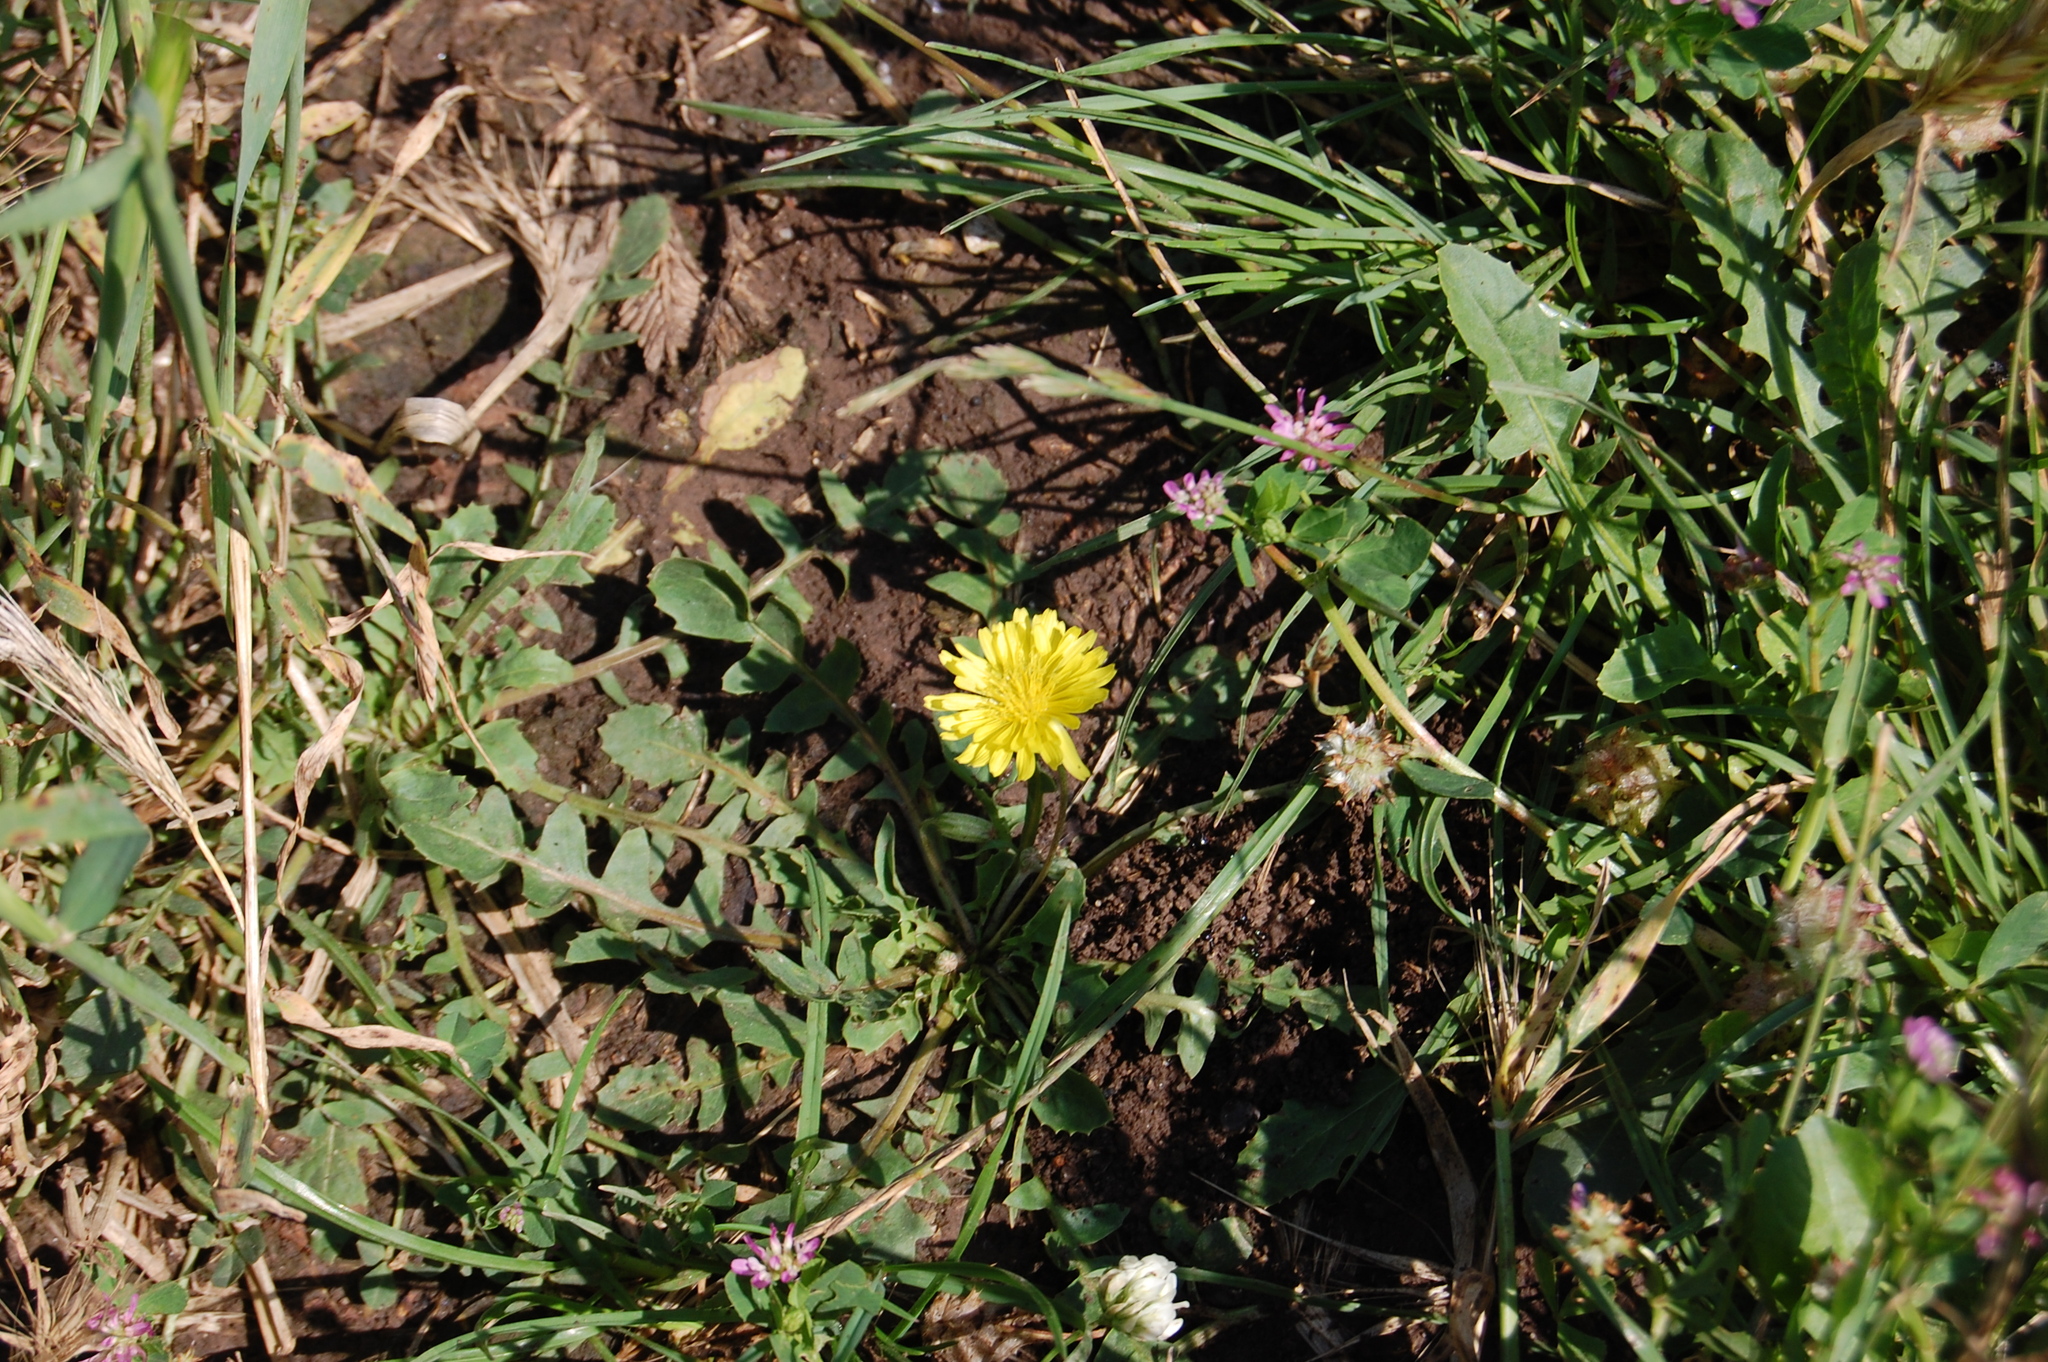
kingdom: Plantae
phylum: Tracheophyta
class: Magnoliopsida
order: Asterales
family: Asteraceae
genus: Crepis
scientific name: Crepis bursifolia
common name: Italian hawksbeard
